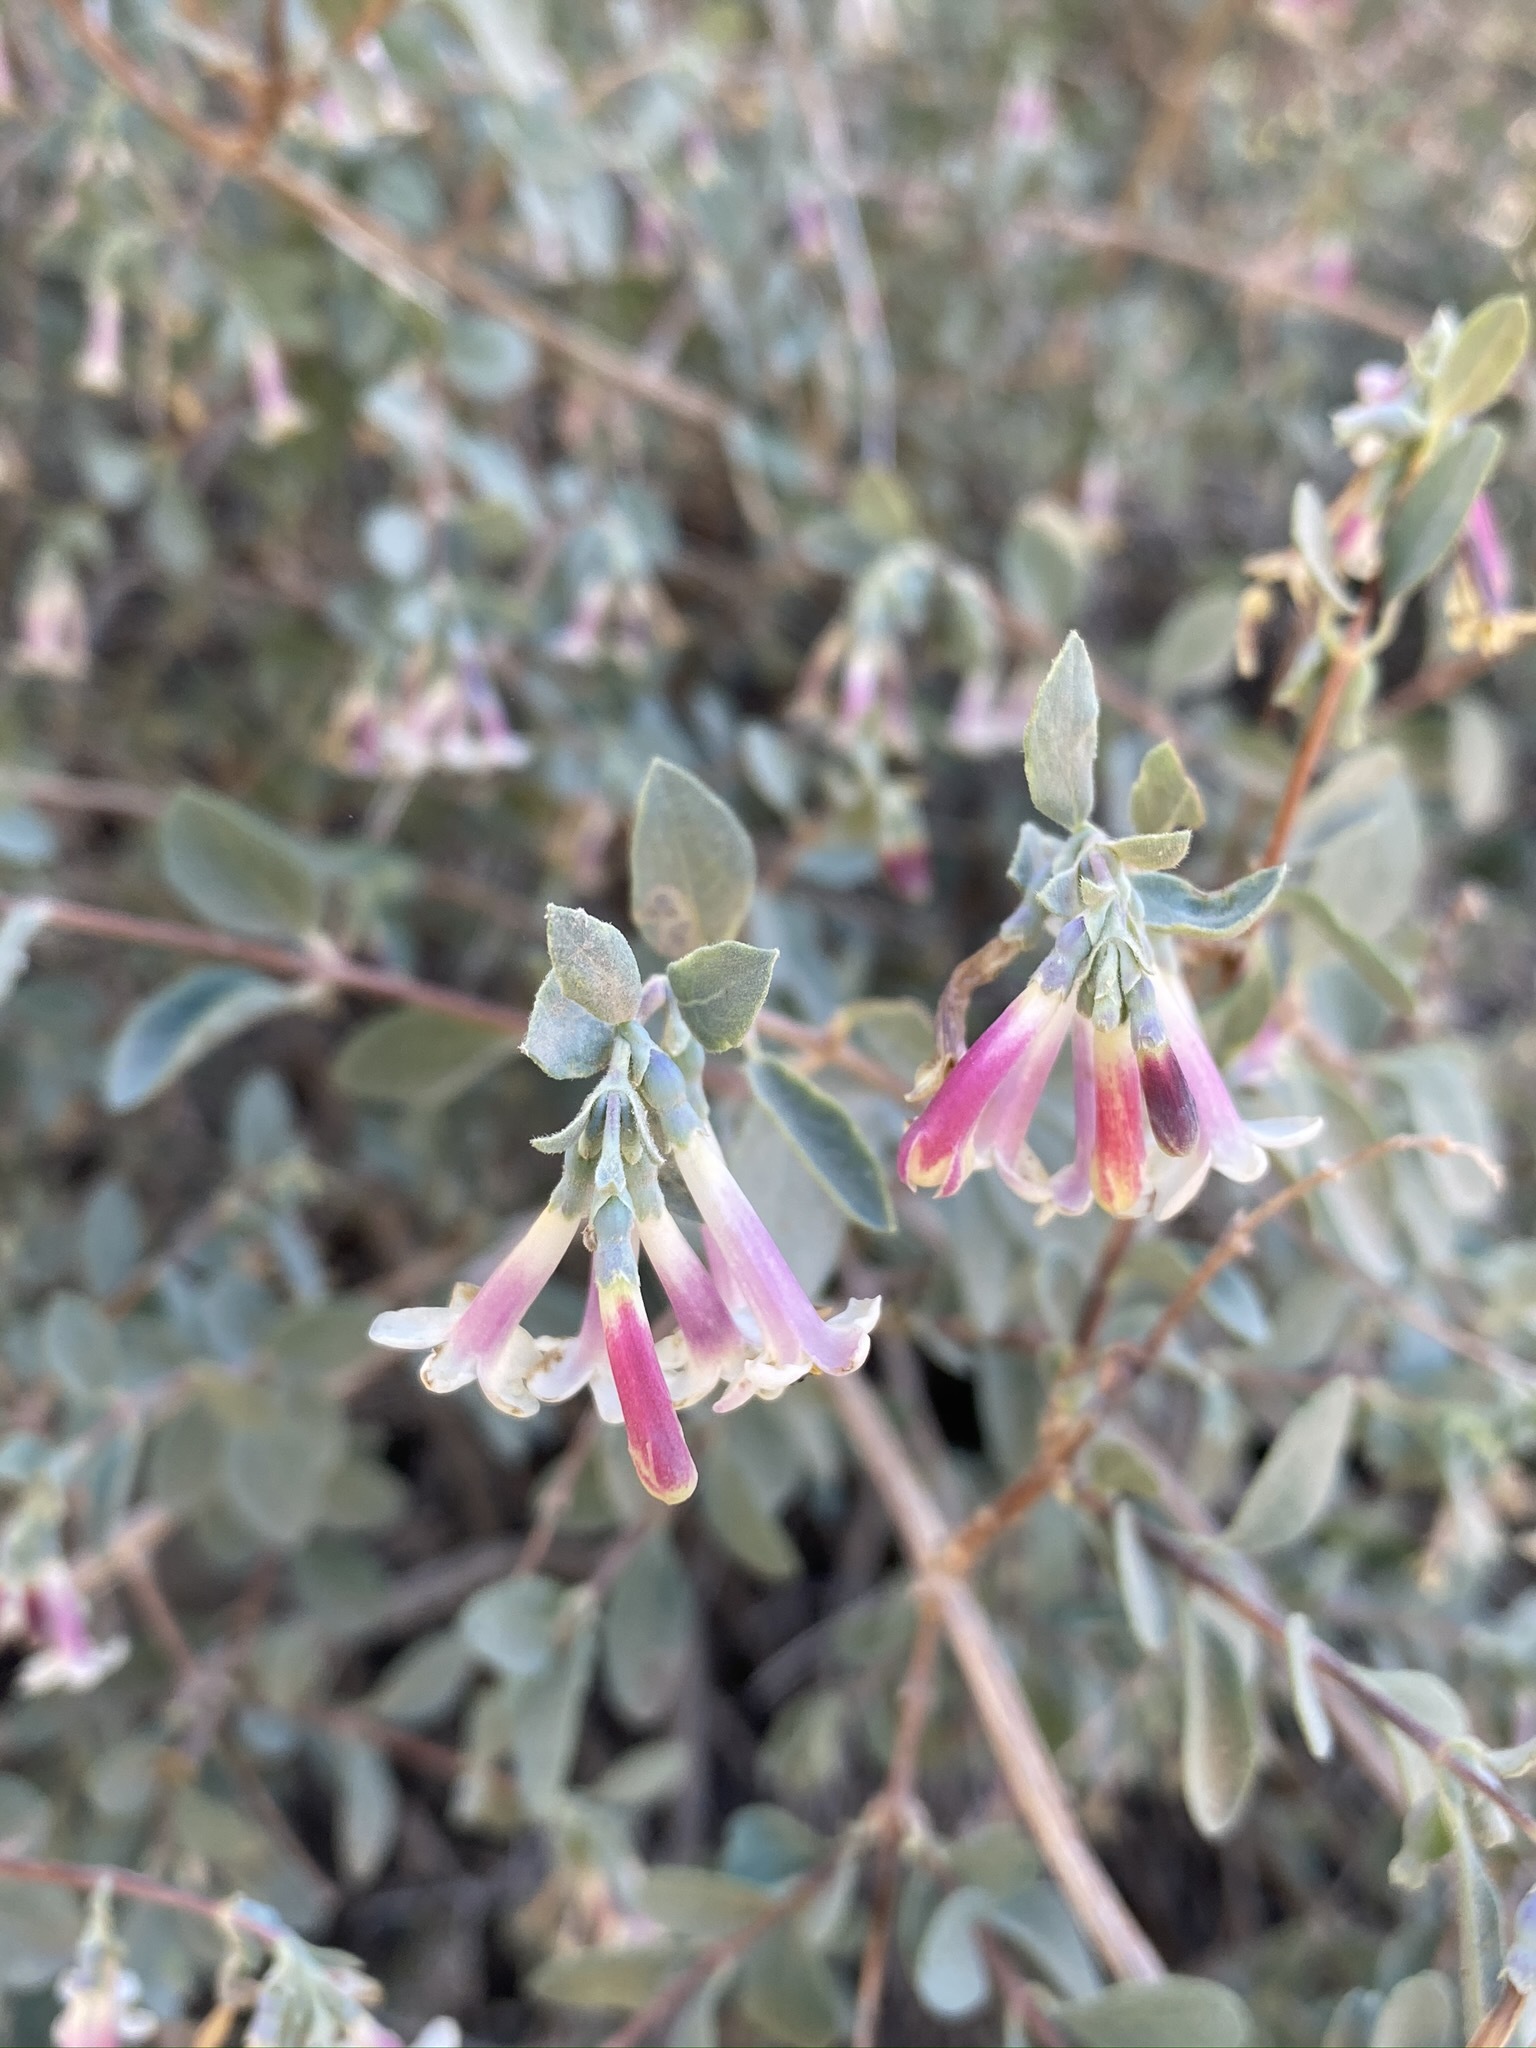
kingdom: Plantae
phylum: Tracheophyta
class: Magnoliopsida
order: Dipsacales
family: Caprifoliaceae
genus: Symphoricarpos
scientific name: Symphoricarpos longiflorus
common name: Fragrant snowberry
